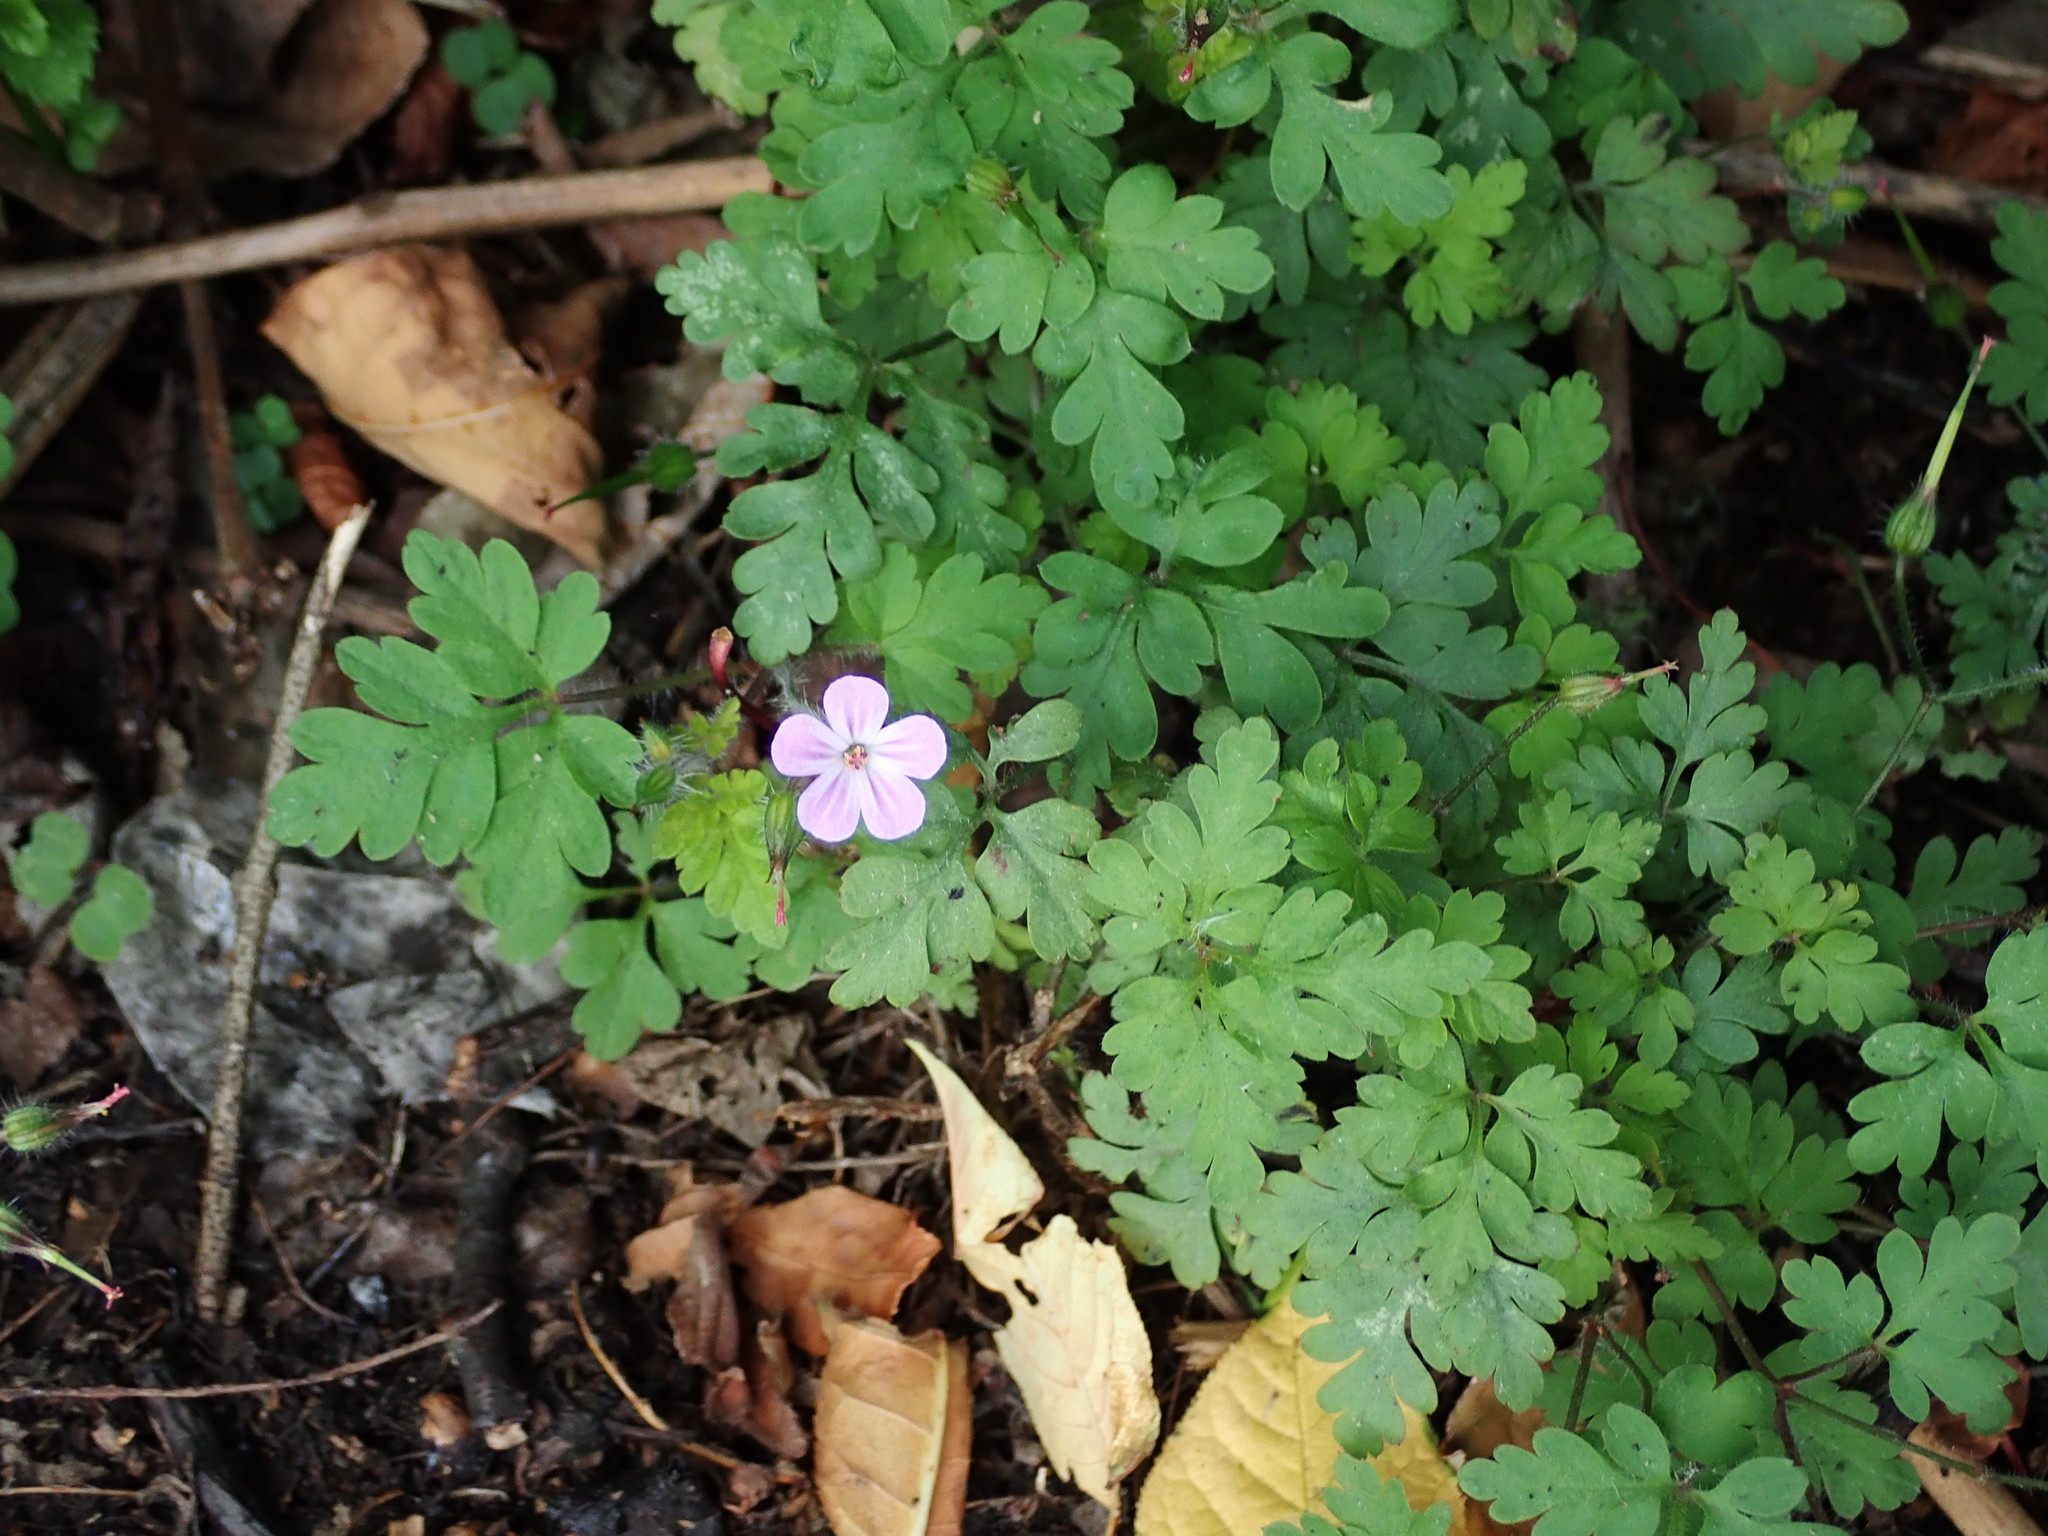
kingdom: Plantae
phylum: Tracheophyta
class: Magnoliopsida
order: Geraniales
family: Geraniaceae
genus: Geranium
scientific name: Geranium robertianum
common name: Herb-robert
